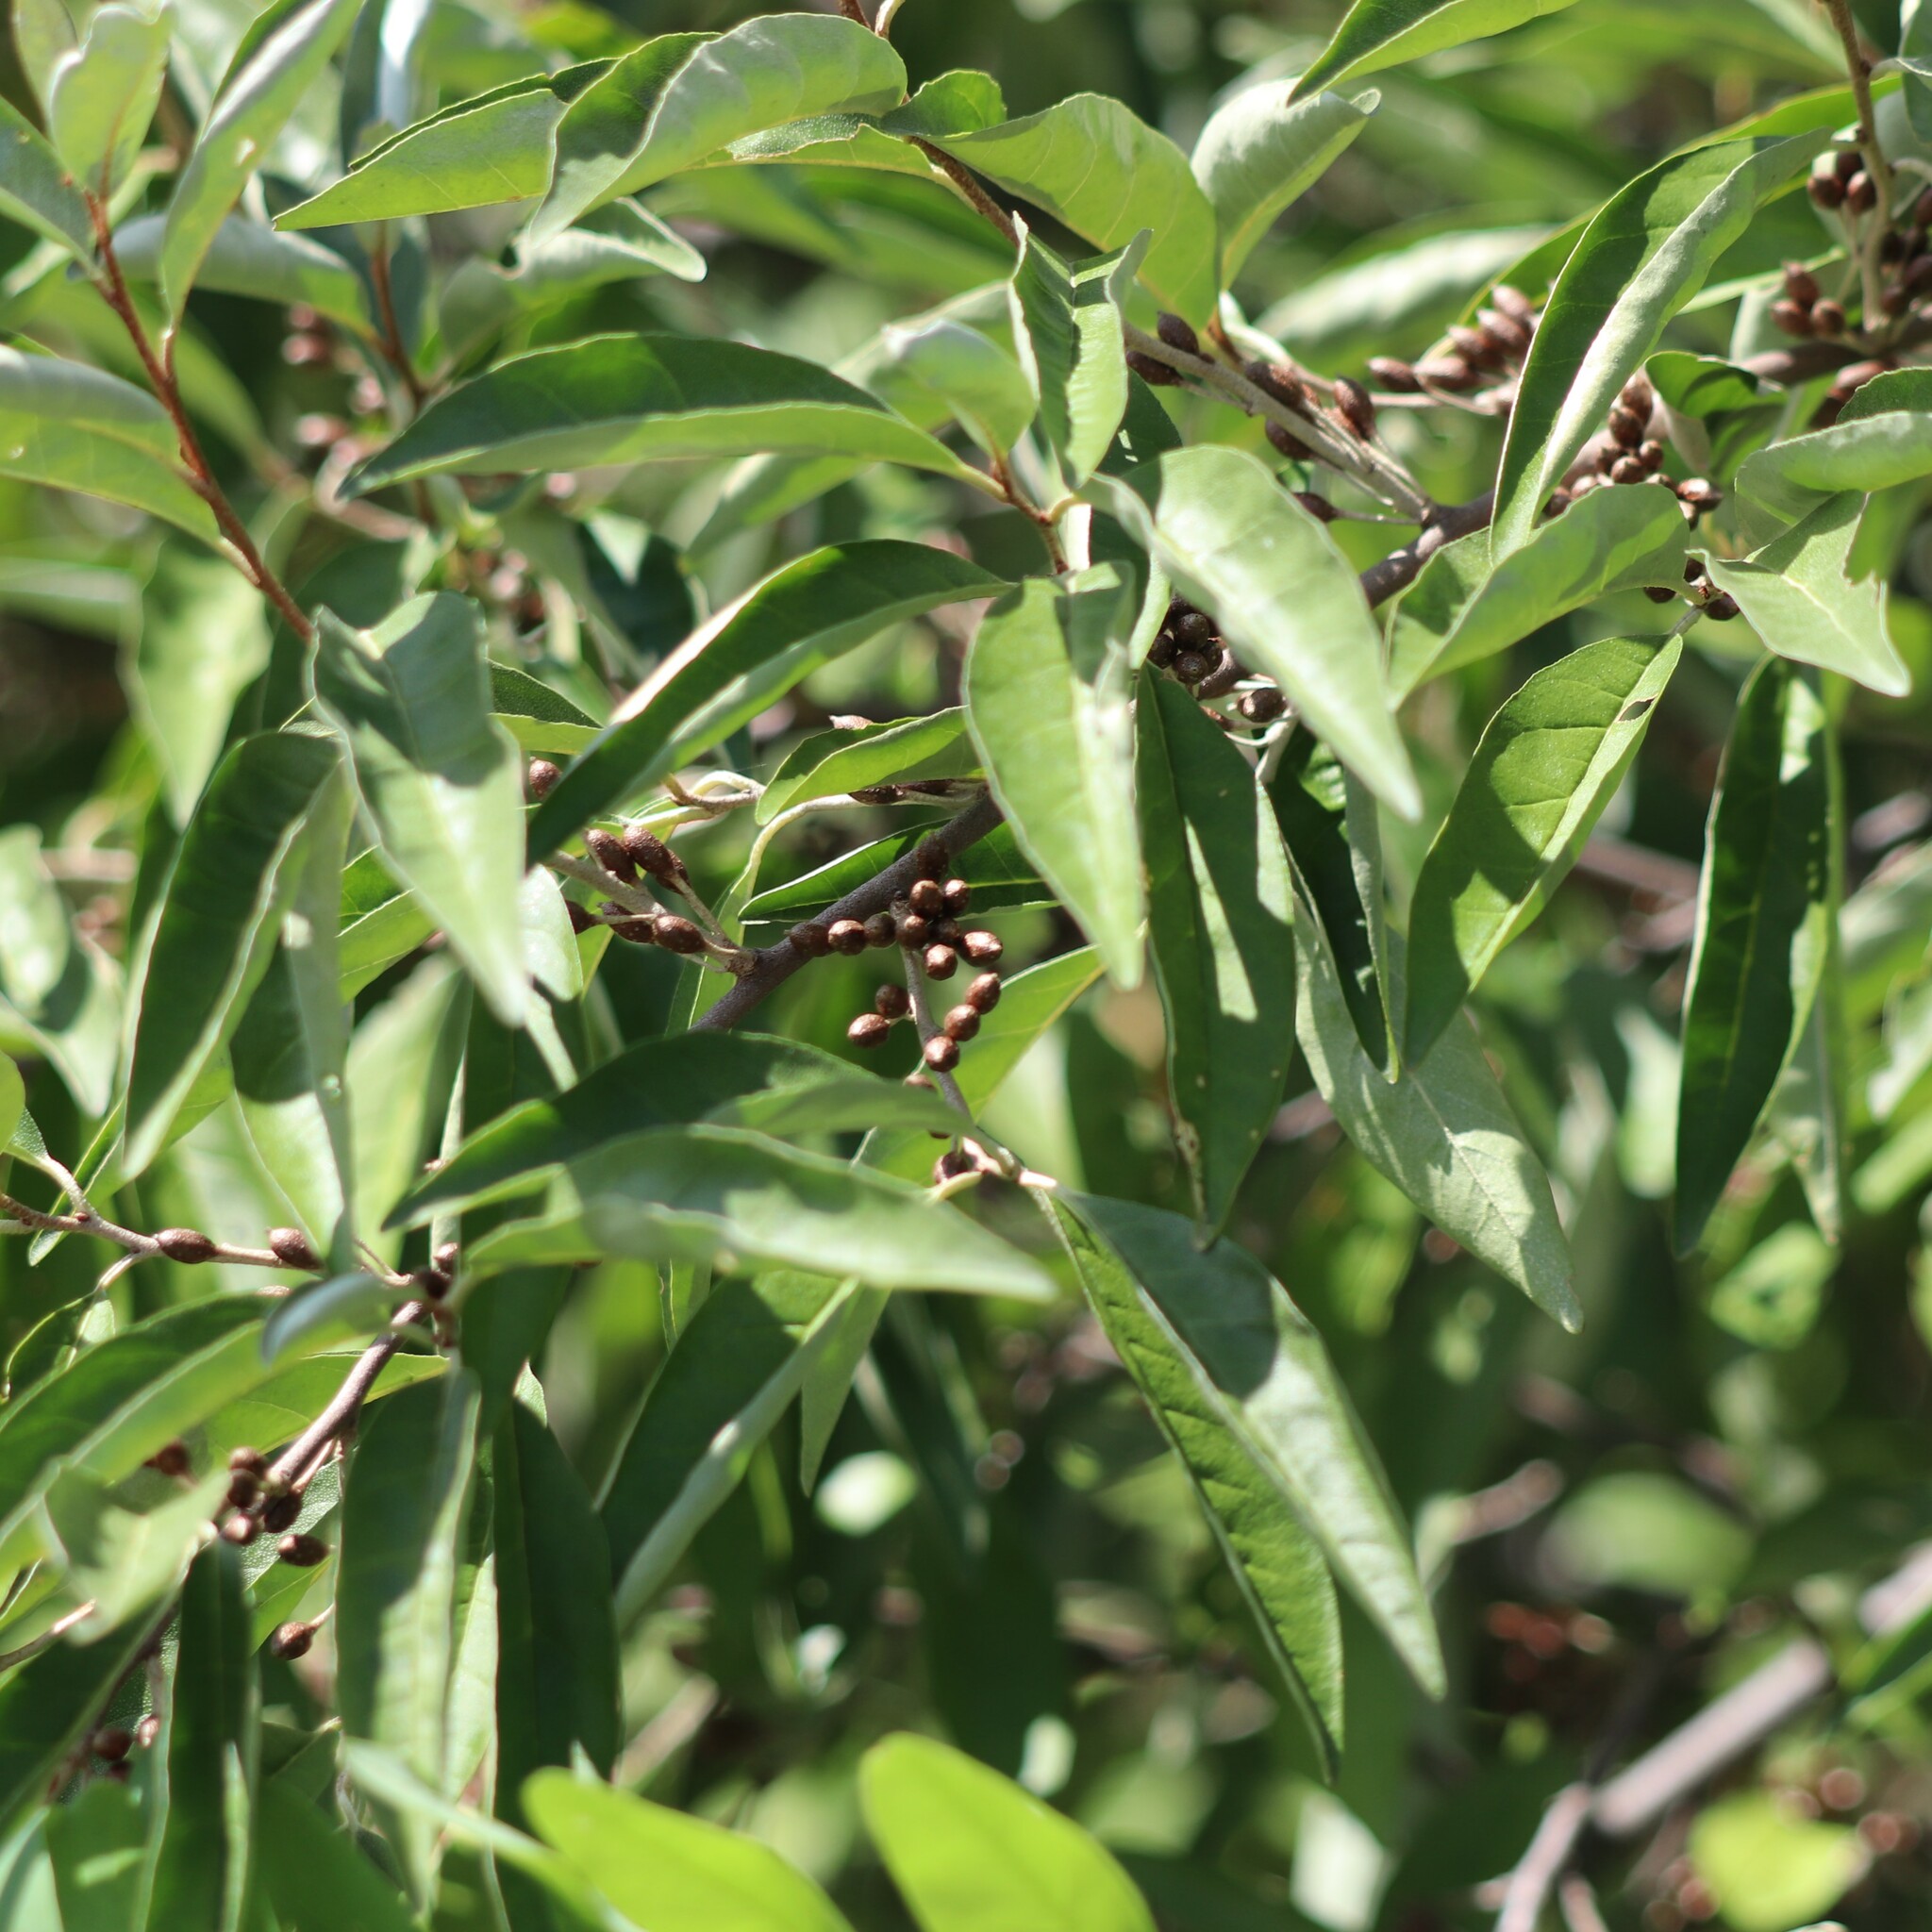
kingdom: Plantae
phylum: Tracheophyta
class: Magnoliopsida
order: Rosales
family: Elaeagnaceae
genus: Elaeagnus
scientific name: Elaeagnus umbellata
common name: Autumn olive
